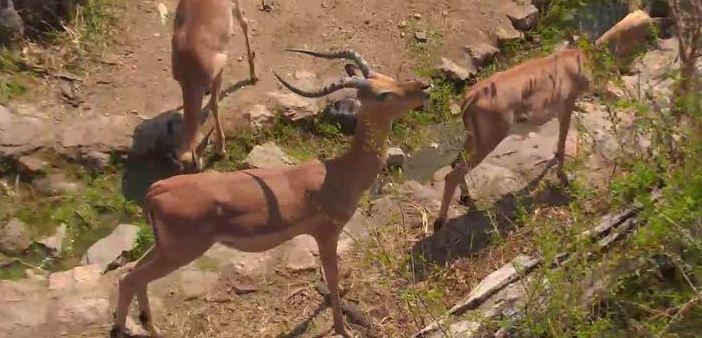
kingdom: Animalia
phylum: Chordata
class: Mammalia
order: Artiodactyla
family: Bovidae
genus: Aepyceros
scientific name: Aepyceros melampus
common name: Impala
